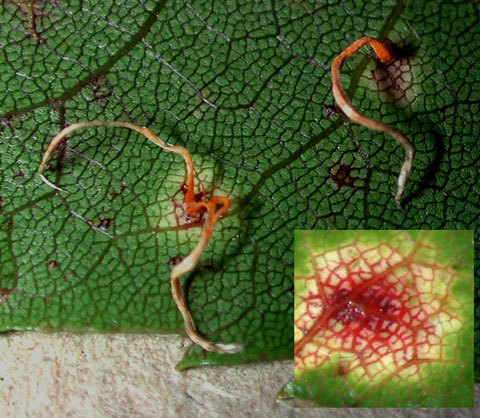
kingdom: Fungi
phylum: Basidiomycota
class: Pucciniomycetes
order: Pucciniales
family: Phragmidiaceae
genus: Hamaspora
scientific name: Hamaspora australis
